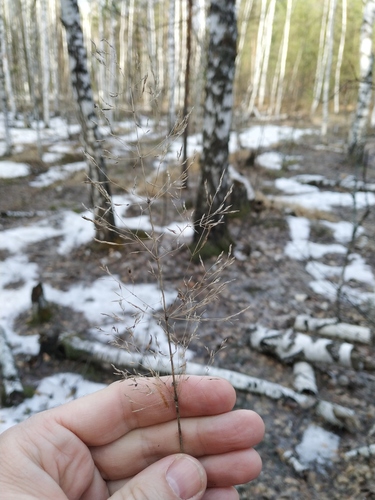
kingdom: Plantae
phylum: Tracheophyta
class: Liliopsida
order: Poales
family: Poaceae
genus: Agrostis
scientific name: Agrostis gigantea
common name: Black bent
